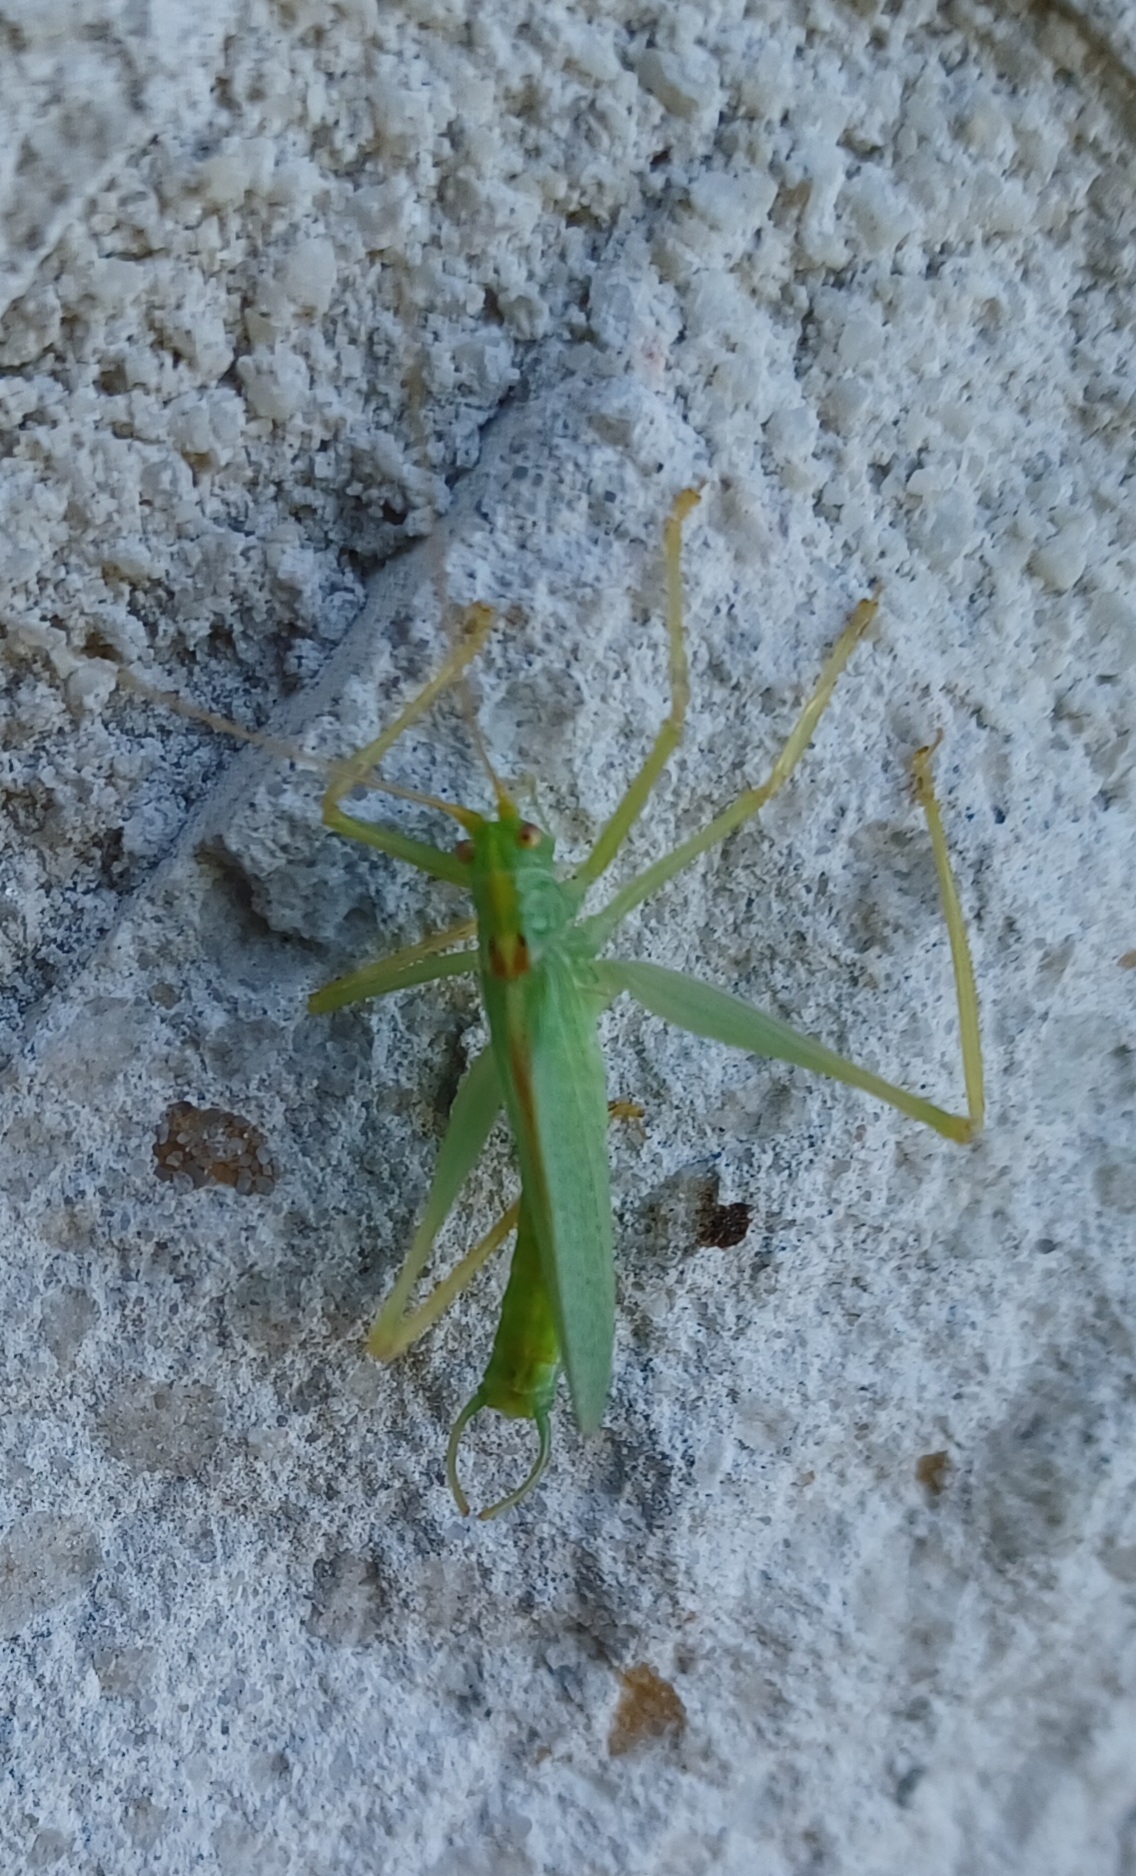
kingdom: Animalia
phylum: Arthropoda
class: Insecta
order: Orthoptera
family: Tettigoniidae
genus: Meconema
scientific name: Meconema thalassinum
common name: Oak bush-cricket
